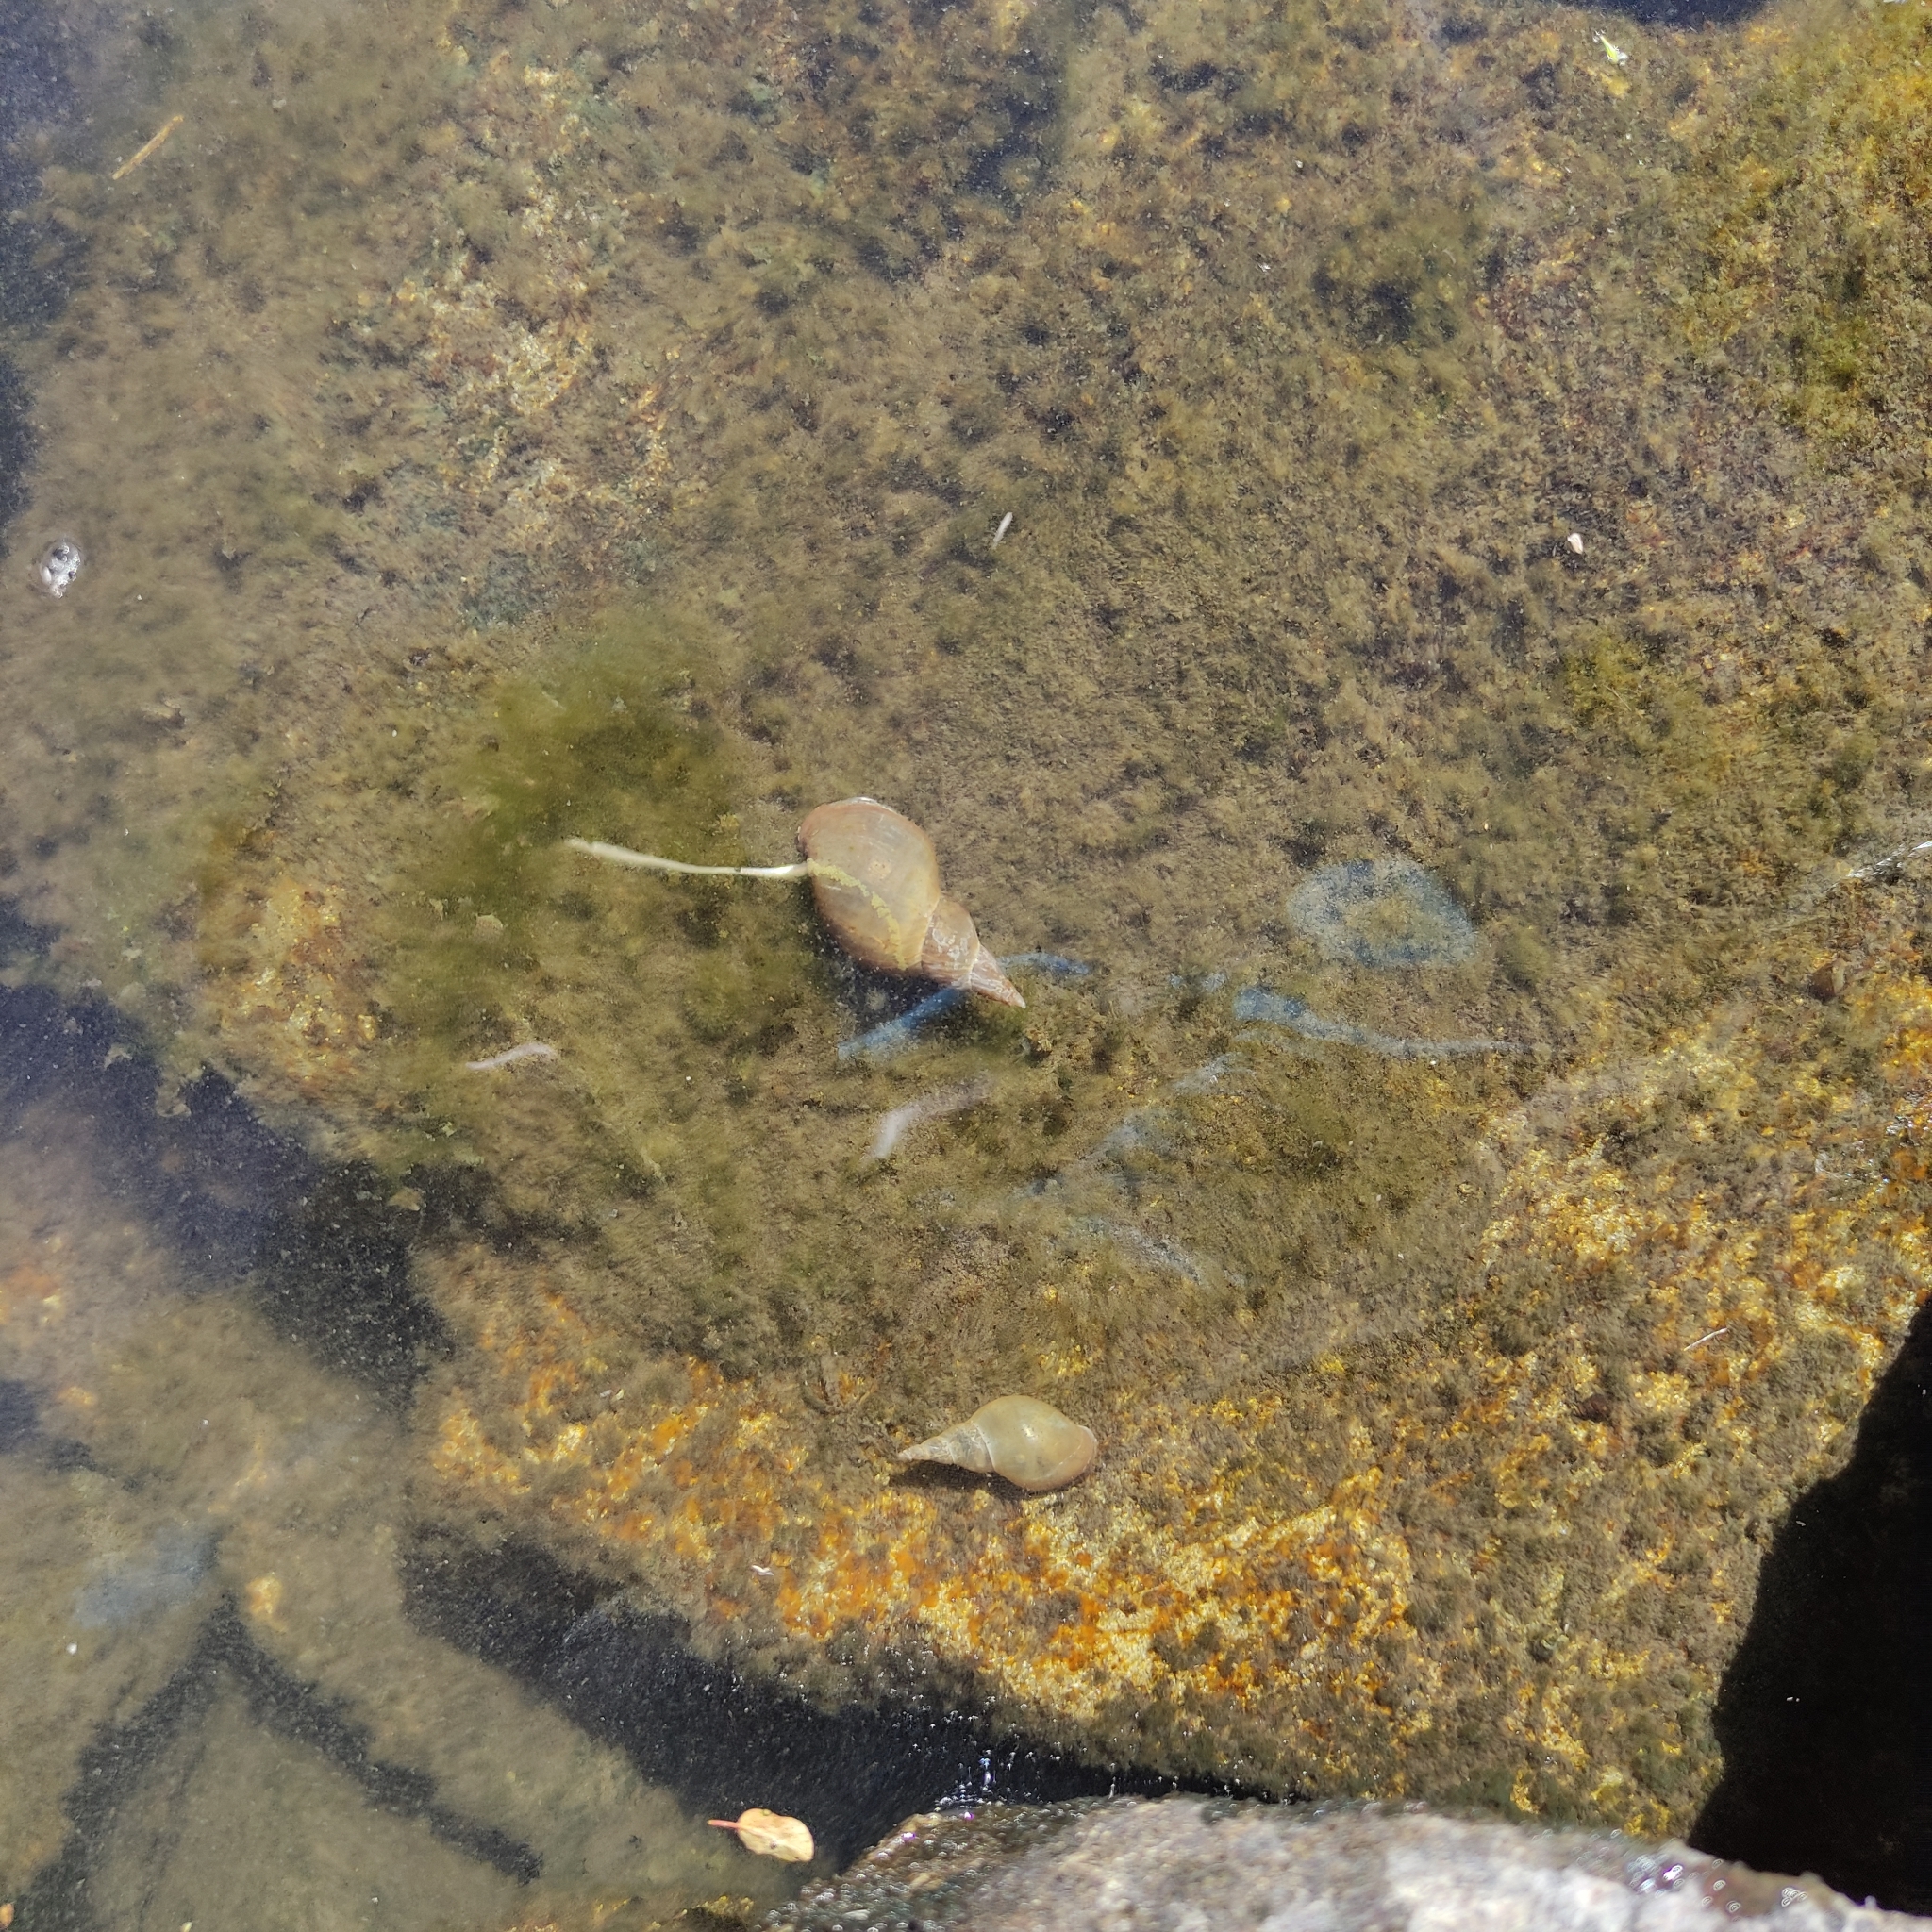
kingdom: Animalia
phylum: Mollusca
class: Gastropoda
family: Lymnaeidae
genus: Lymnaea
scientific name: Lymnaea stagnalis
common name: Great pond snail
